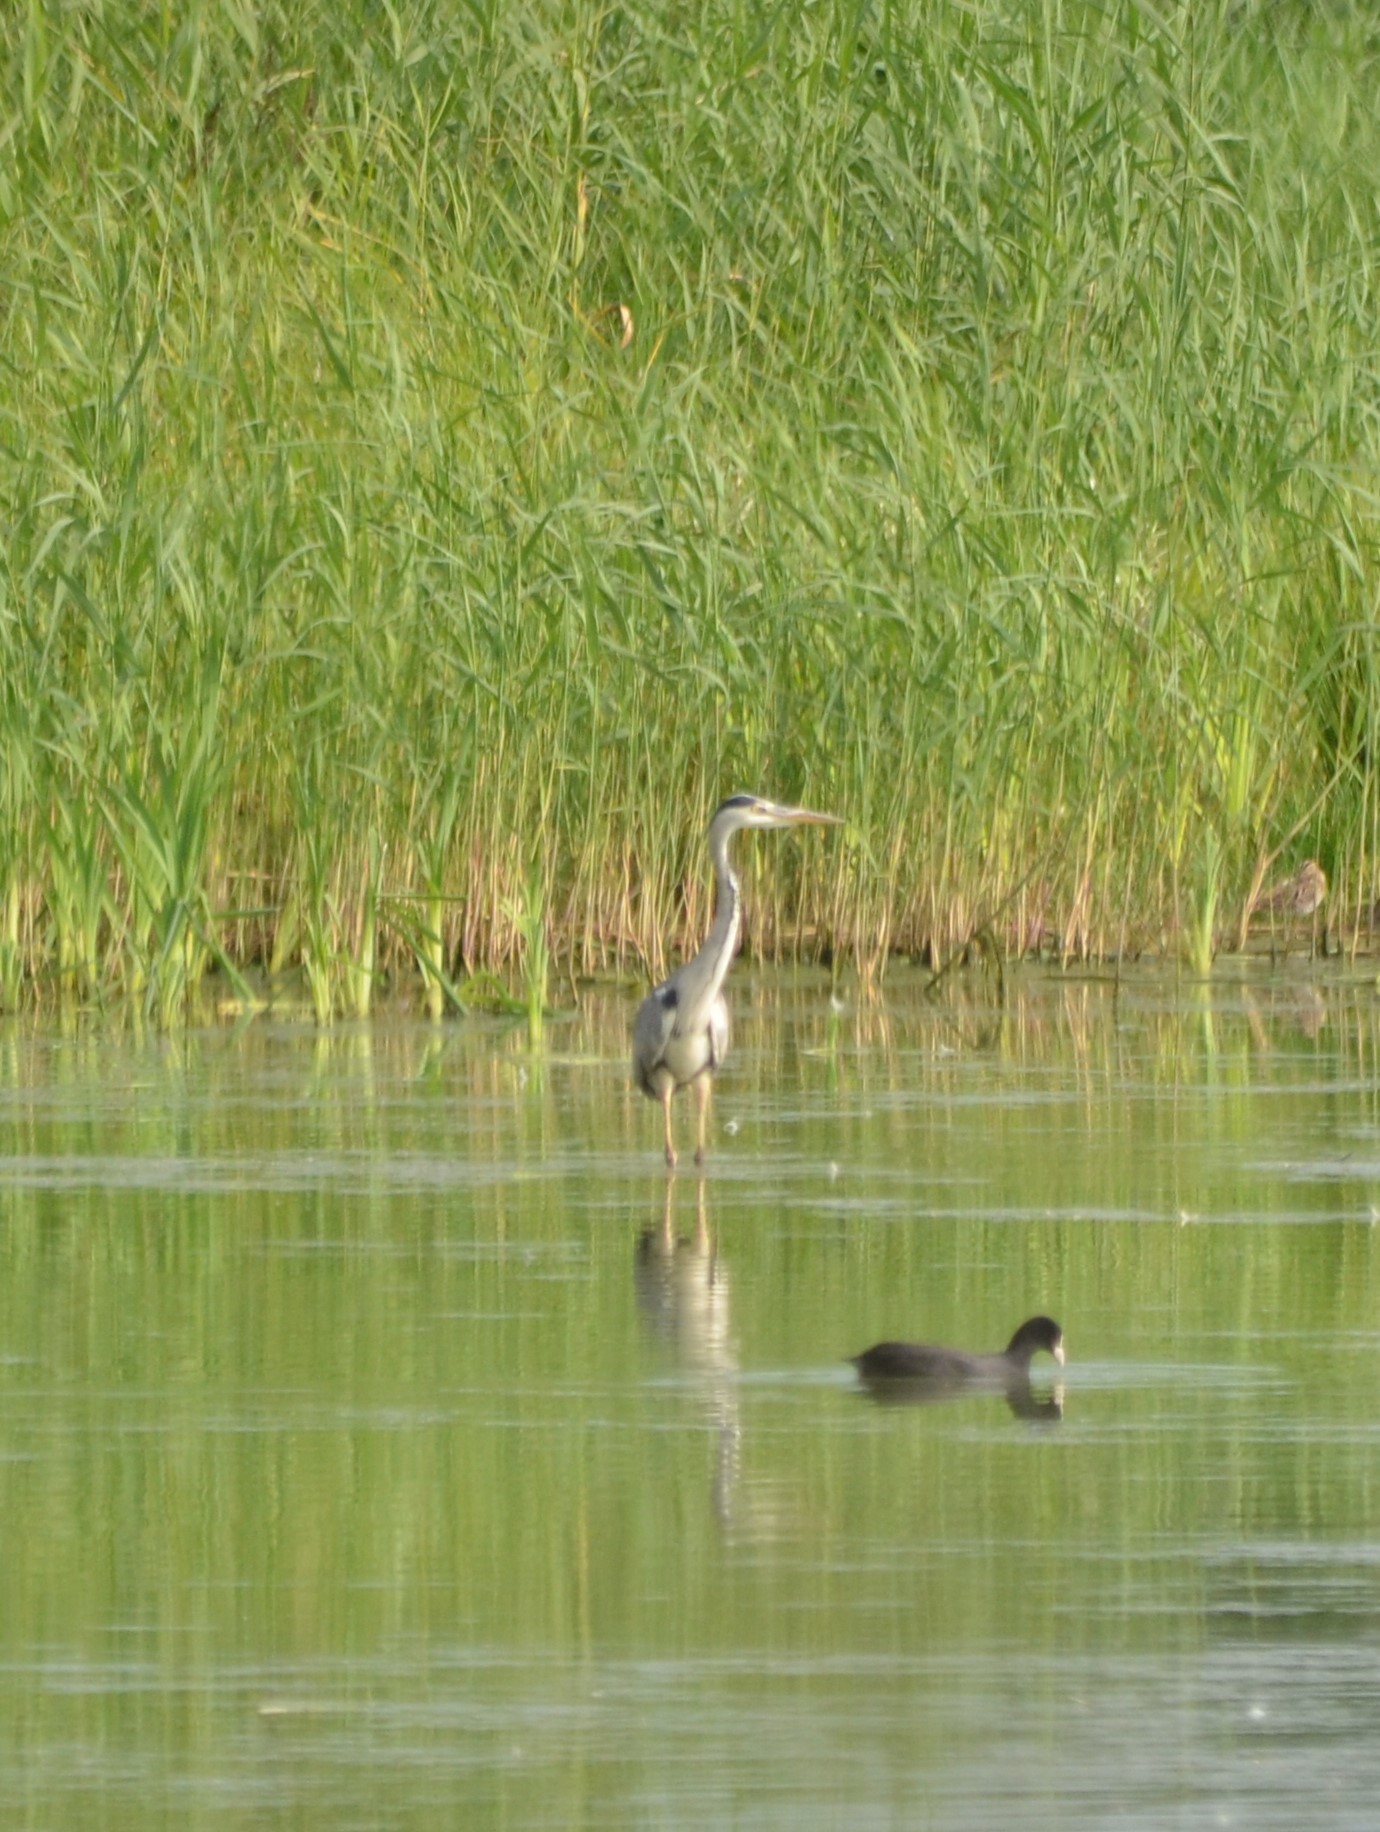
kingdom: Animalia
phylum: Chordata
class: Aves
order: Pelecaniformes
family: Ardeidae
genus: Ardea
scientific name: Ardea cinerea
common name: Grey heron
